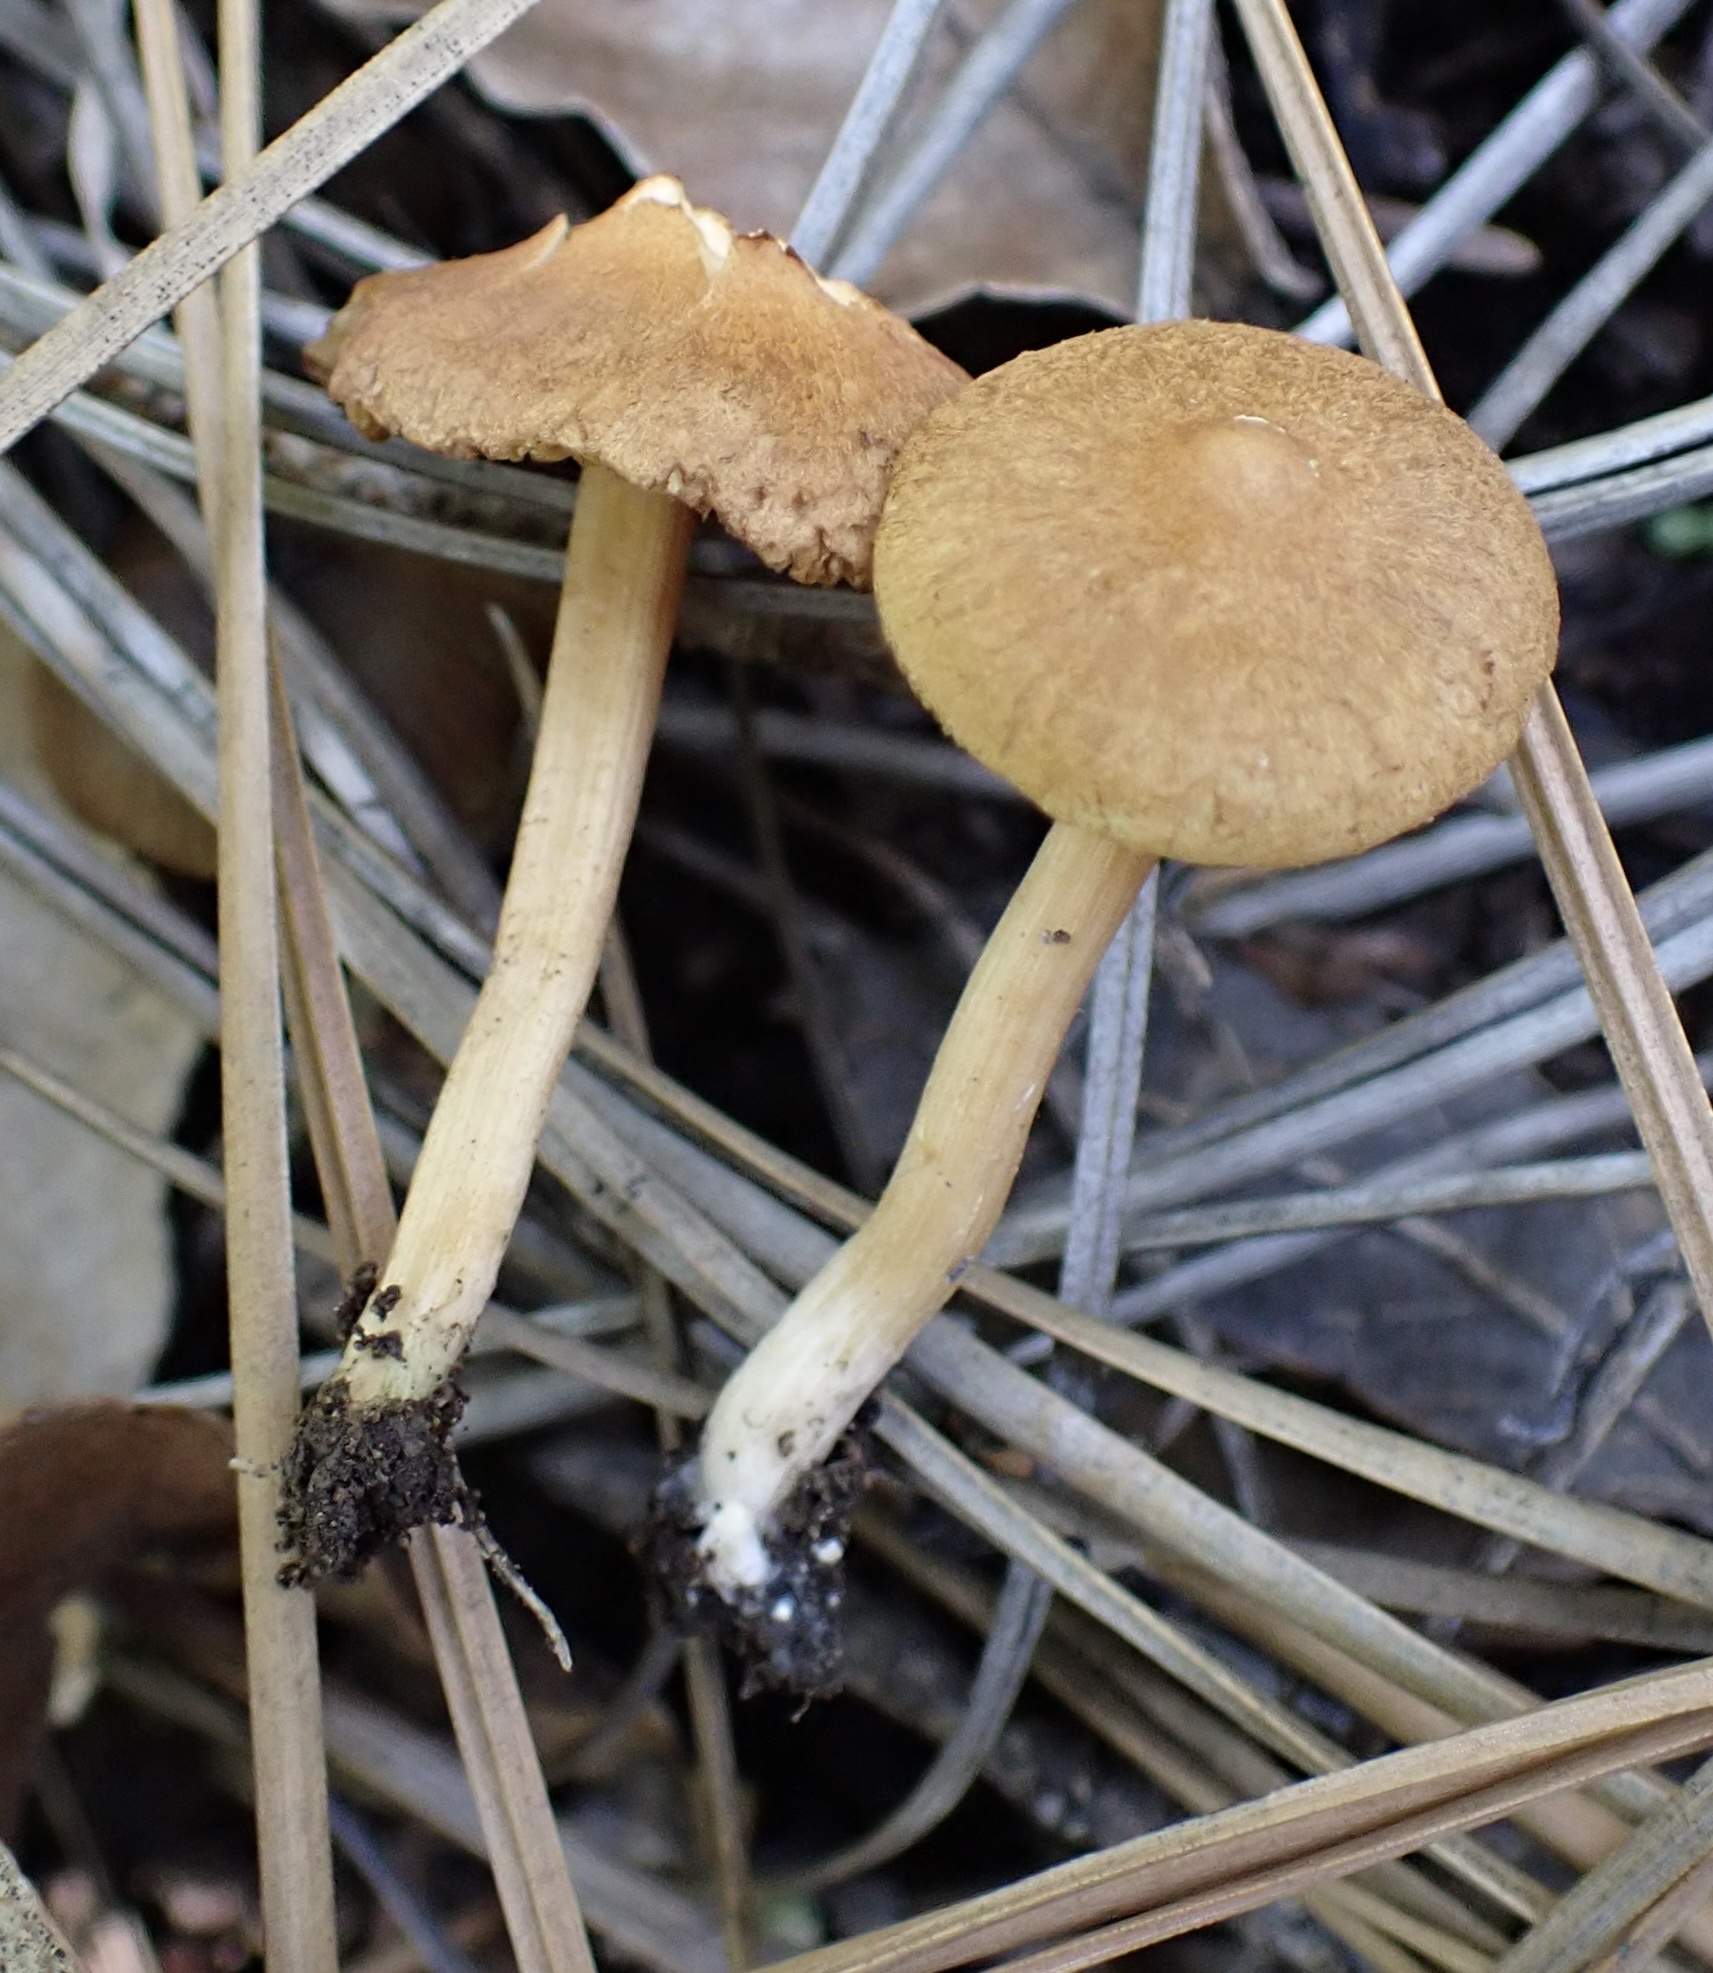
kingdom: Fungi
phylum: Basidiomycota
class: Agaricomycetes
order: Agaricales
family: Inocybaceae
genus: Mallocybe
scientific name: Mallocybe
